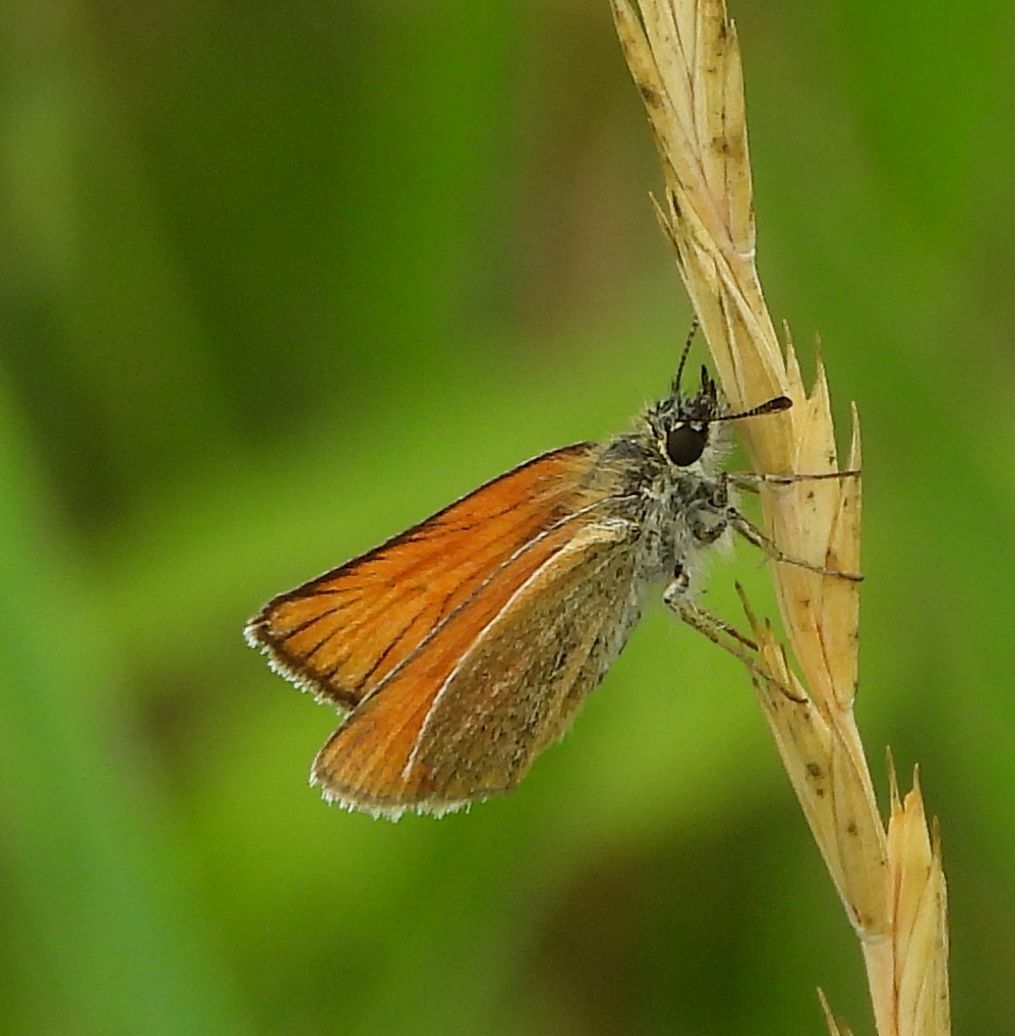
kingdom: Animalia
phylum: Arthropoda
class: Insecta
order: Lepidoptera
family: Hesperiidae
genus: Thymelicus
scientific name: Thymelicus lineola
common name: Essex skipper
